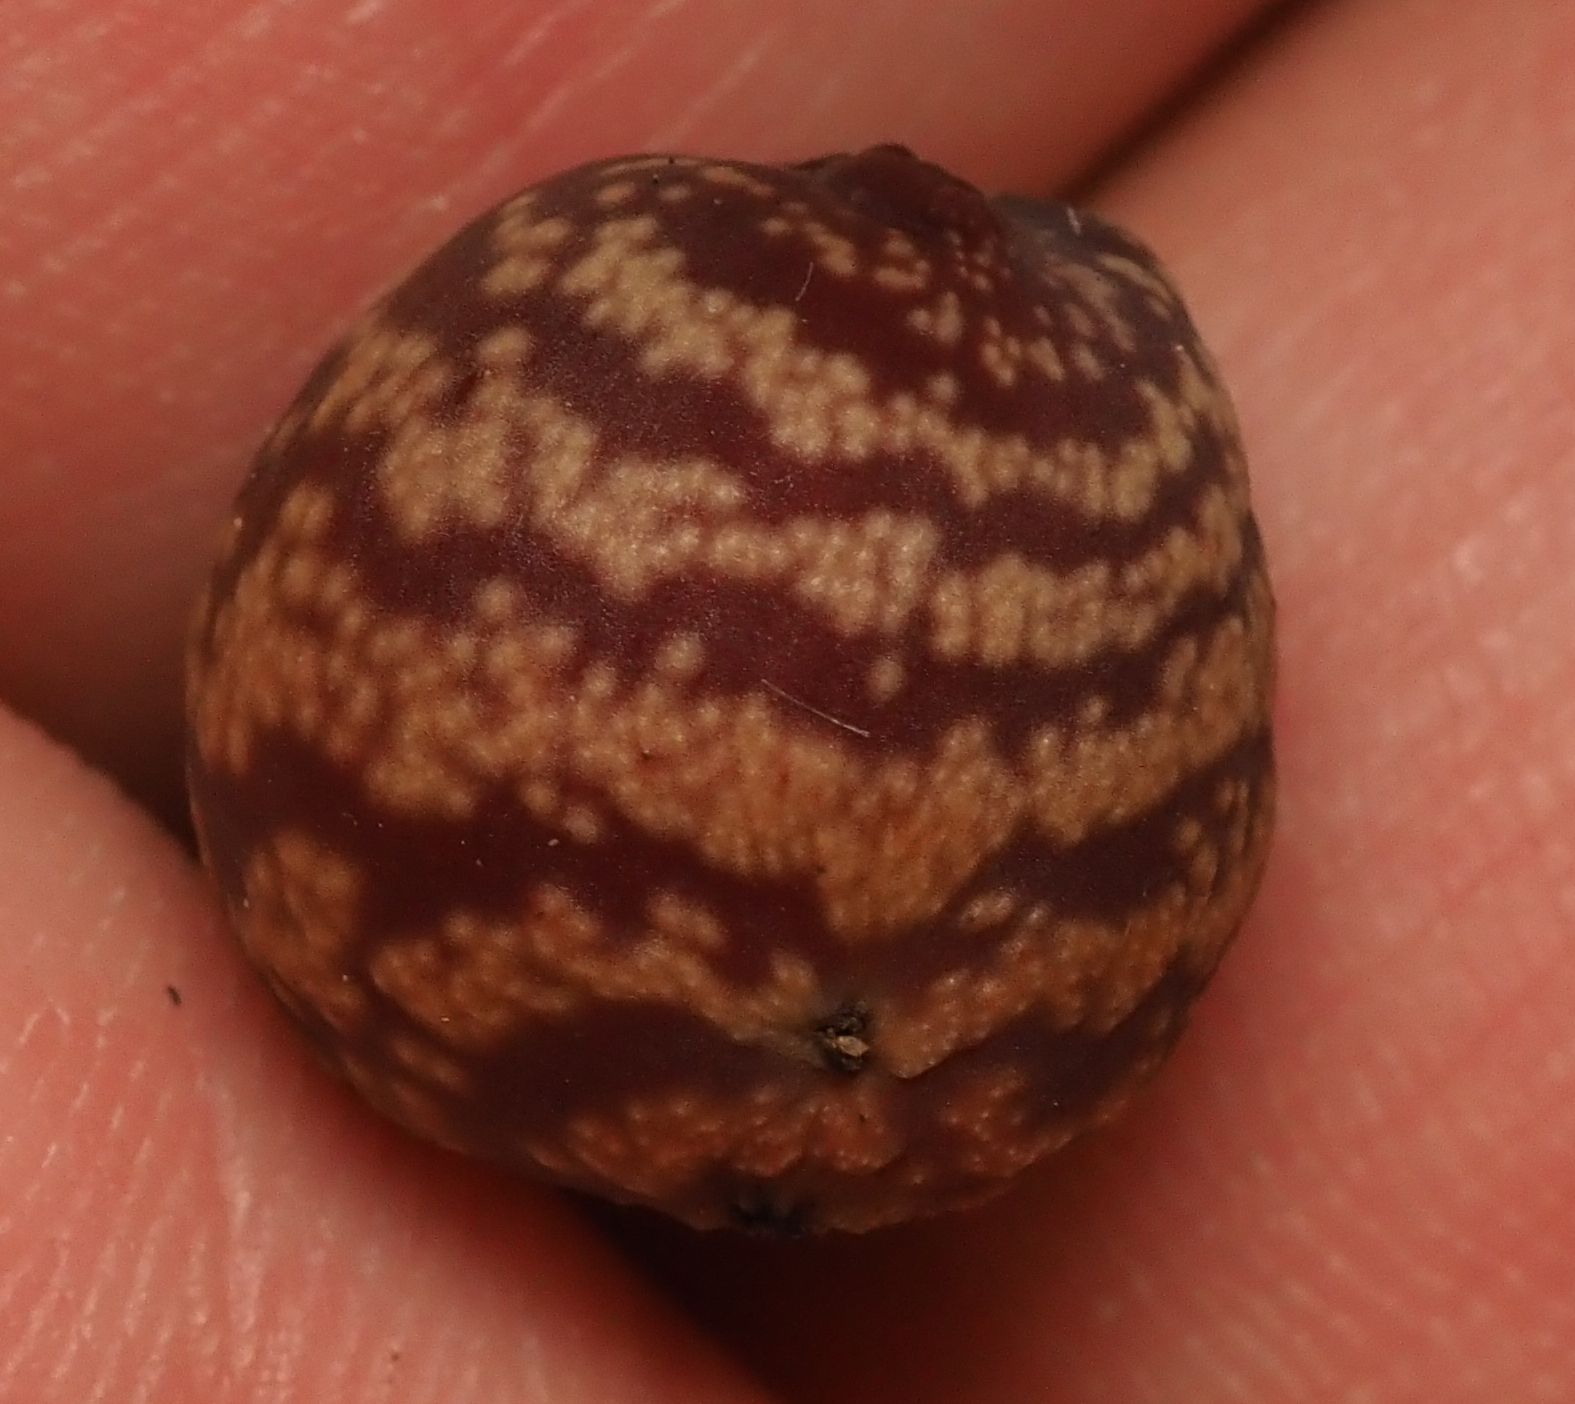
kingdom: Animalia
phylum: Arthropoda
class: Insecta
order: Hymenoptera
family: Cynipidae
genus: Kokkocynips
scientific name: Kokkocynips imbricariae
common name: Banded bullet gall wasp
